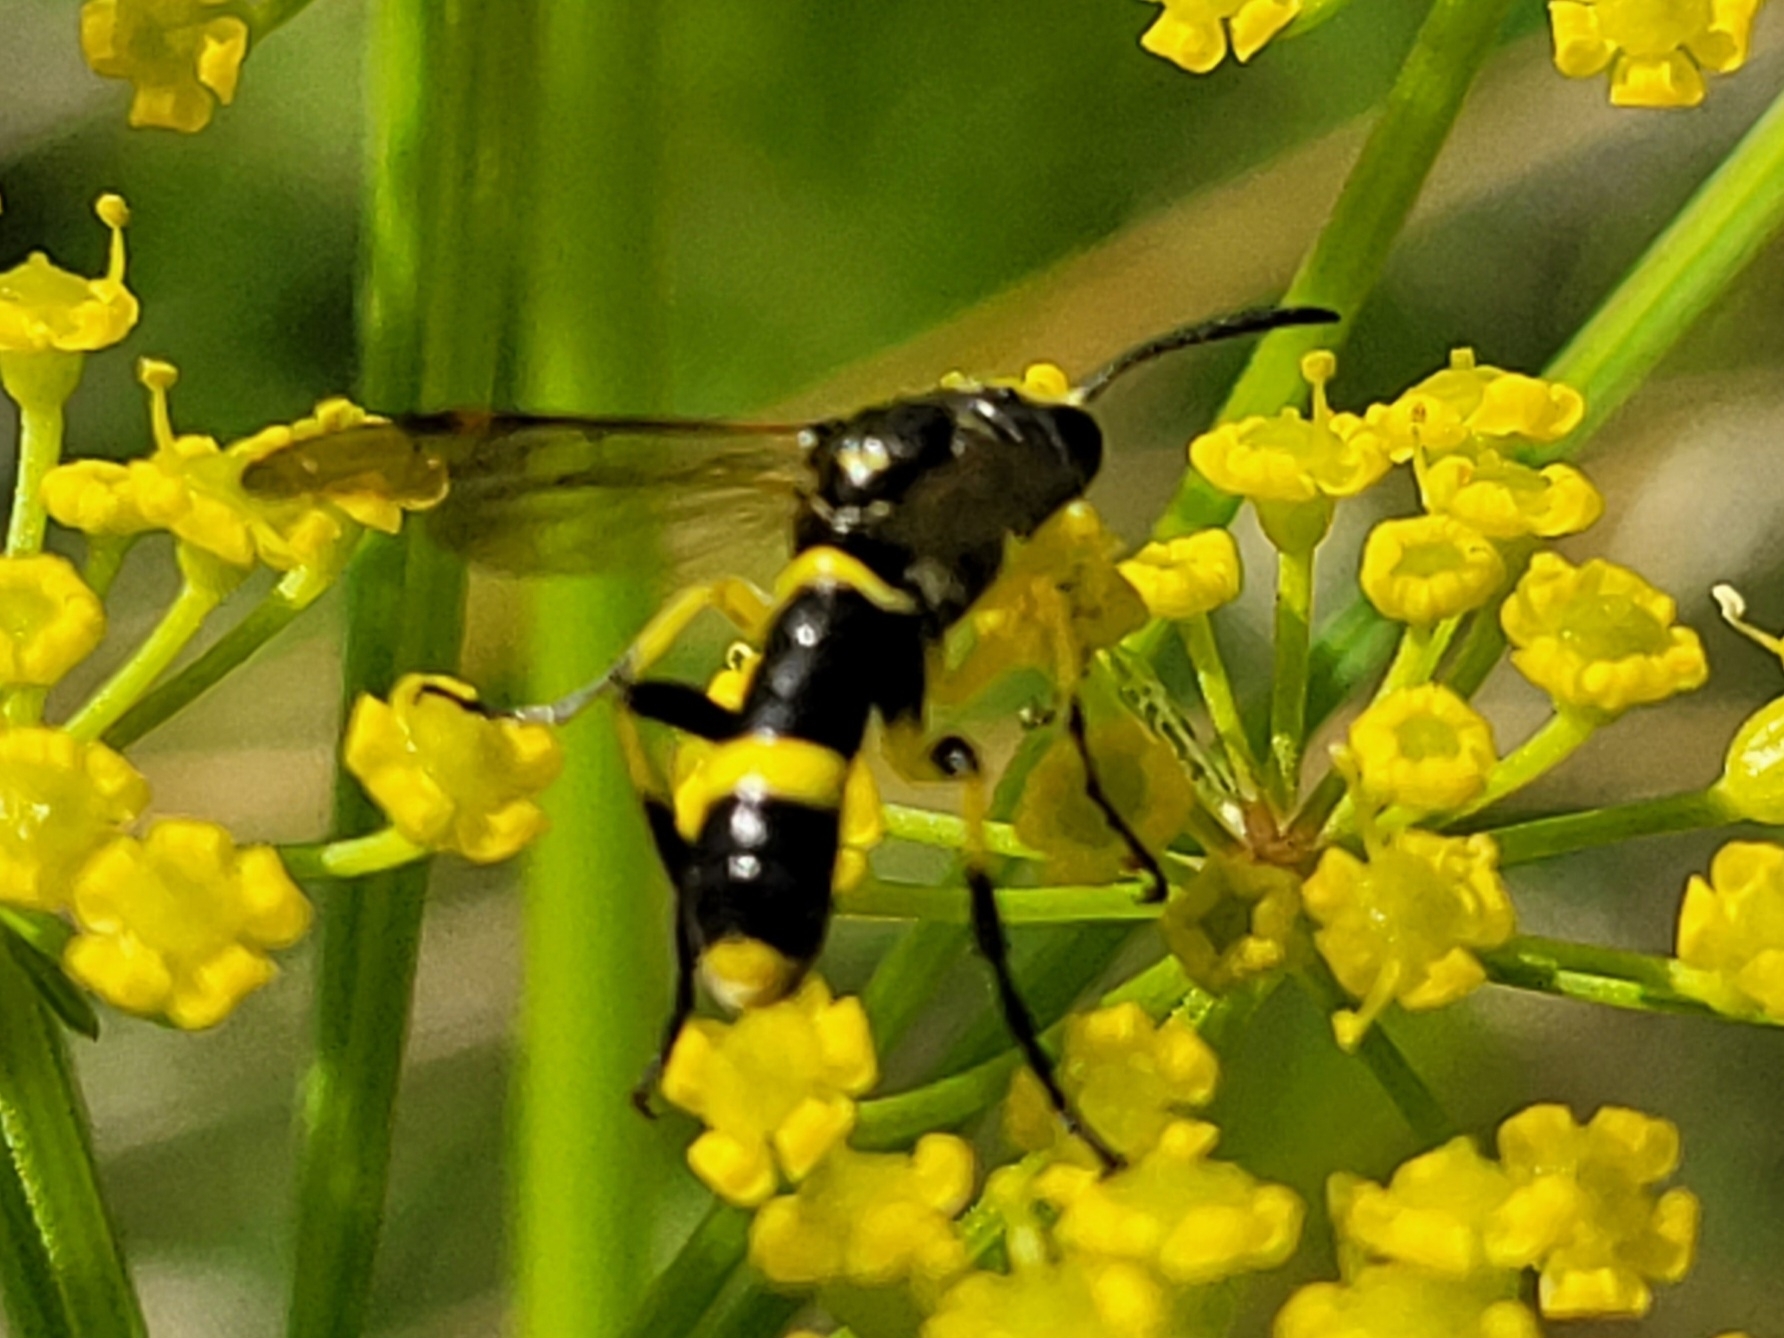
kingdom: Animalia
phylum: Arthropoda
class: Insecta
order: Hymenoptera
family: Tenthredinidae
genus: Tenthredo
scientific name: Tenthredo amoena
